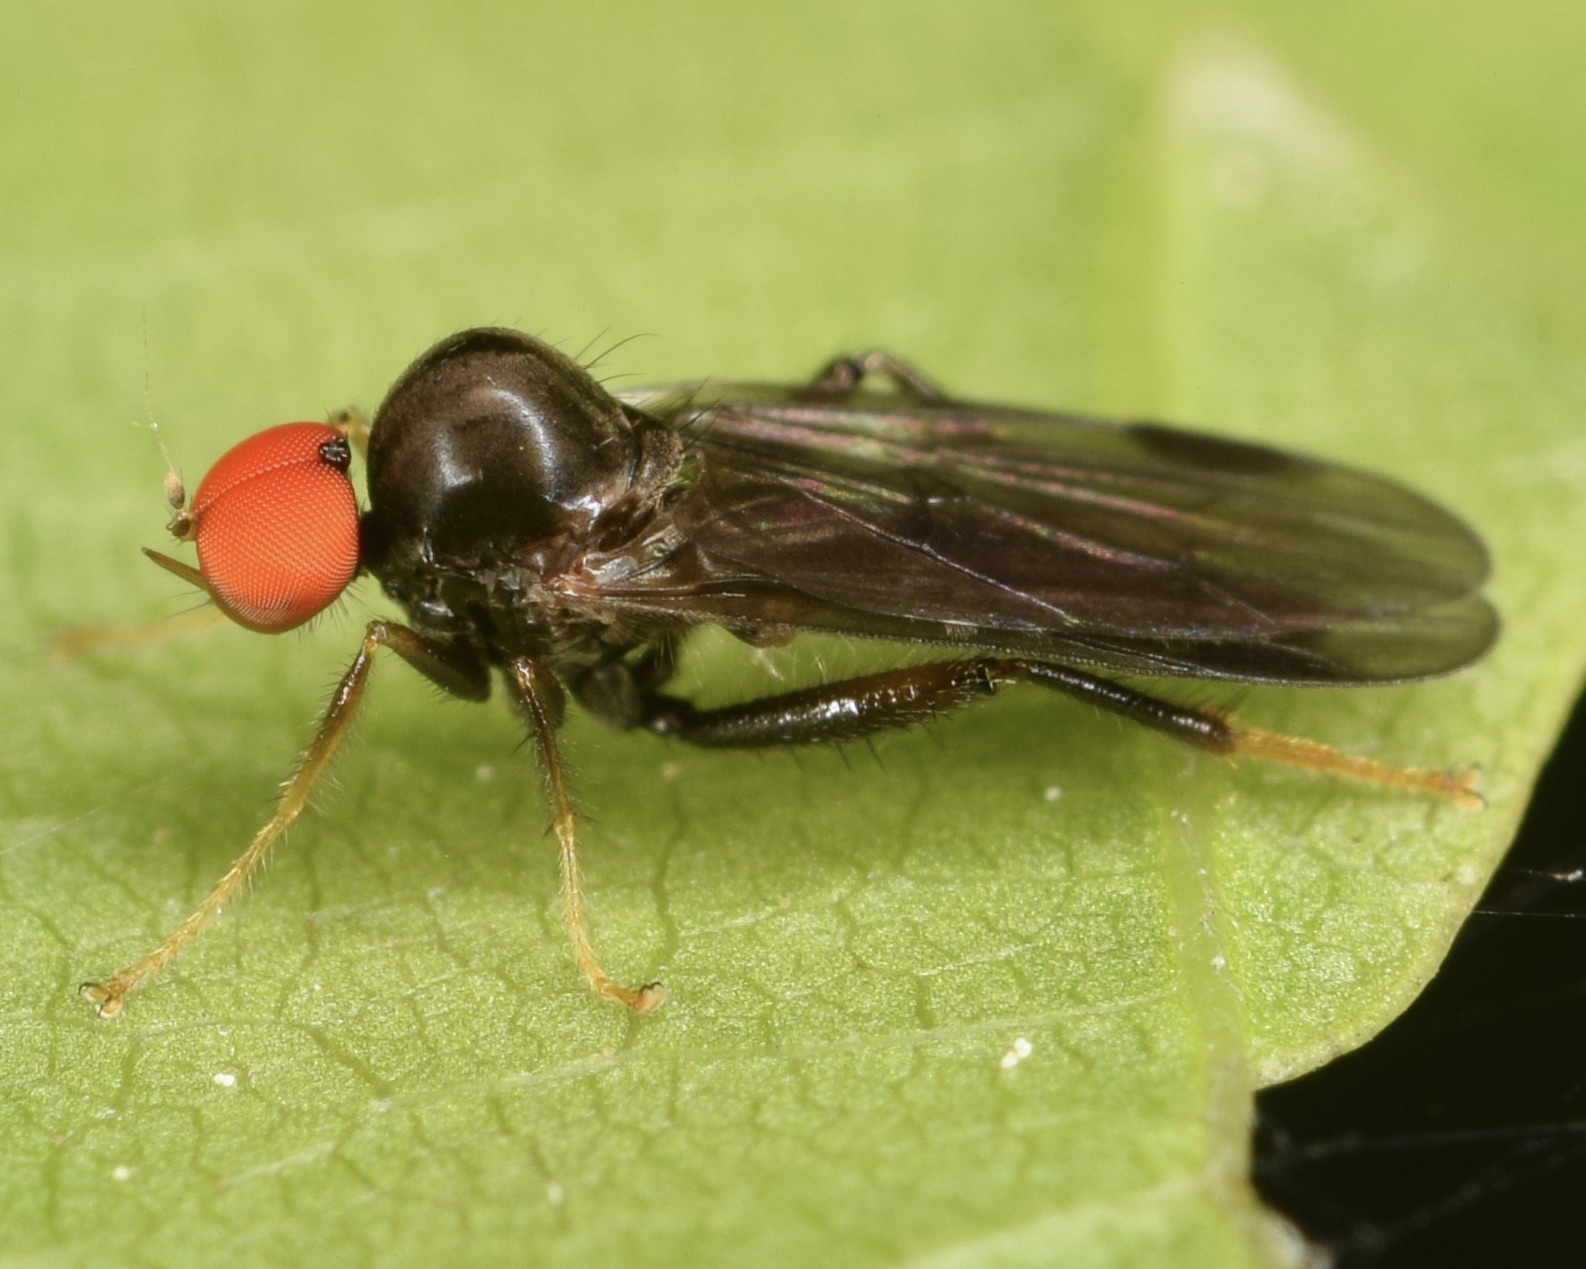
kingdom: Animalia
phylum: Arthropoda
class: Insecta
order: Diptera
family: Hybotidae
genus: Syneches
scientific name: Syneches thoracicus
